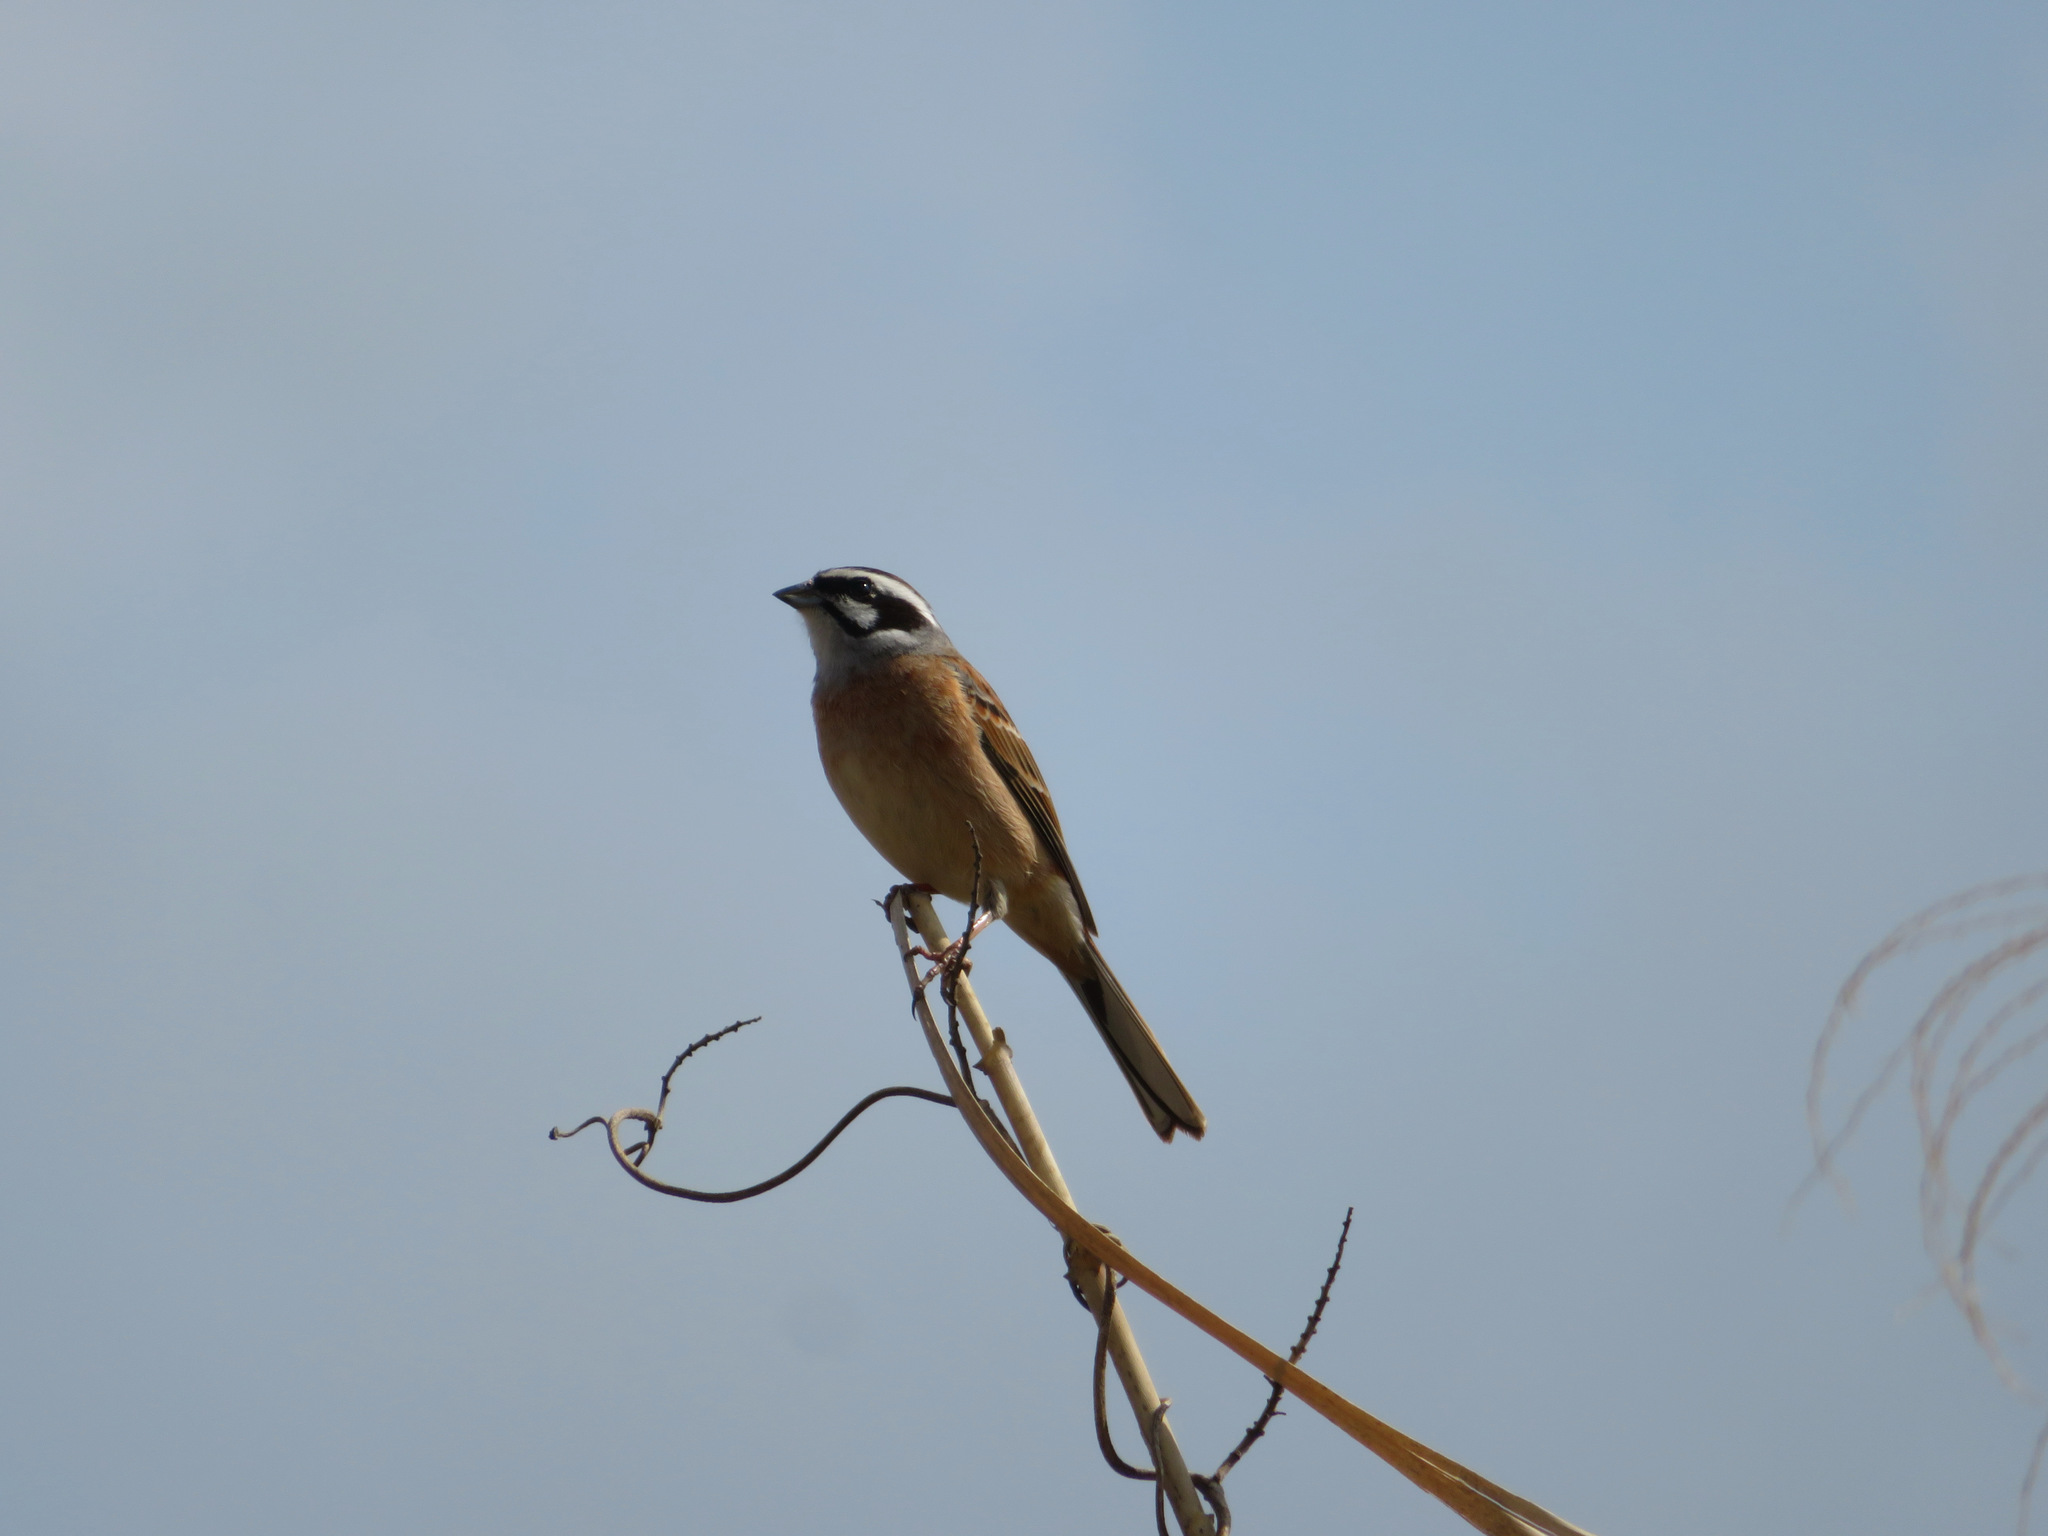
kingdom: Animalia
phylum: Chordata
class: Aves
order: Passeriformes
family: Emberizidae
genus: Emberiza
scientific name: Emberiza cioides
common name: Meadow bunting
